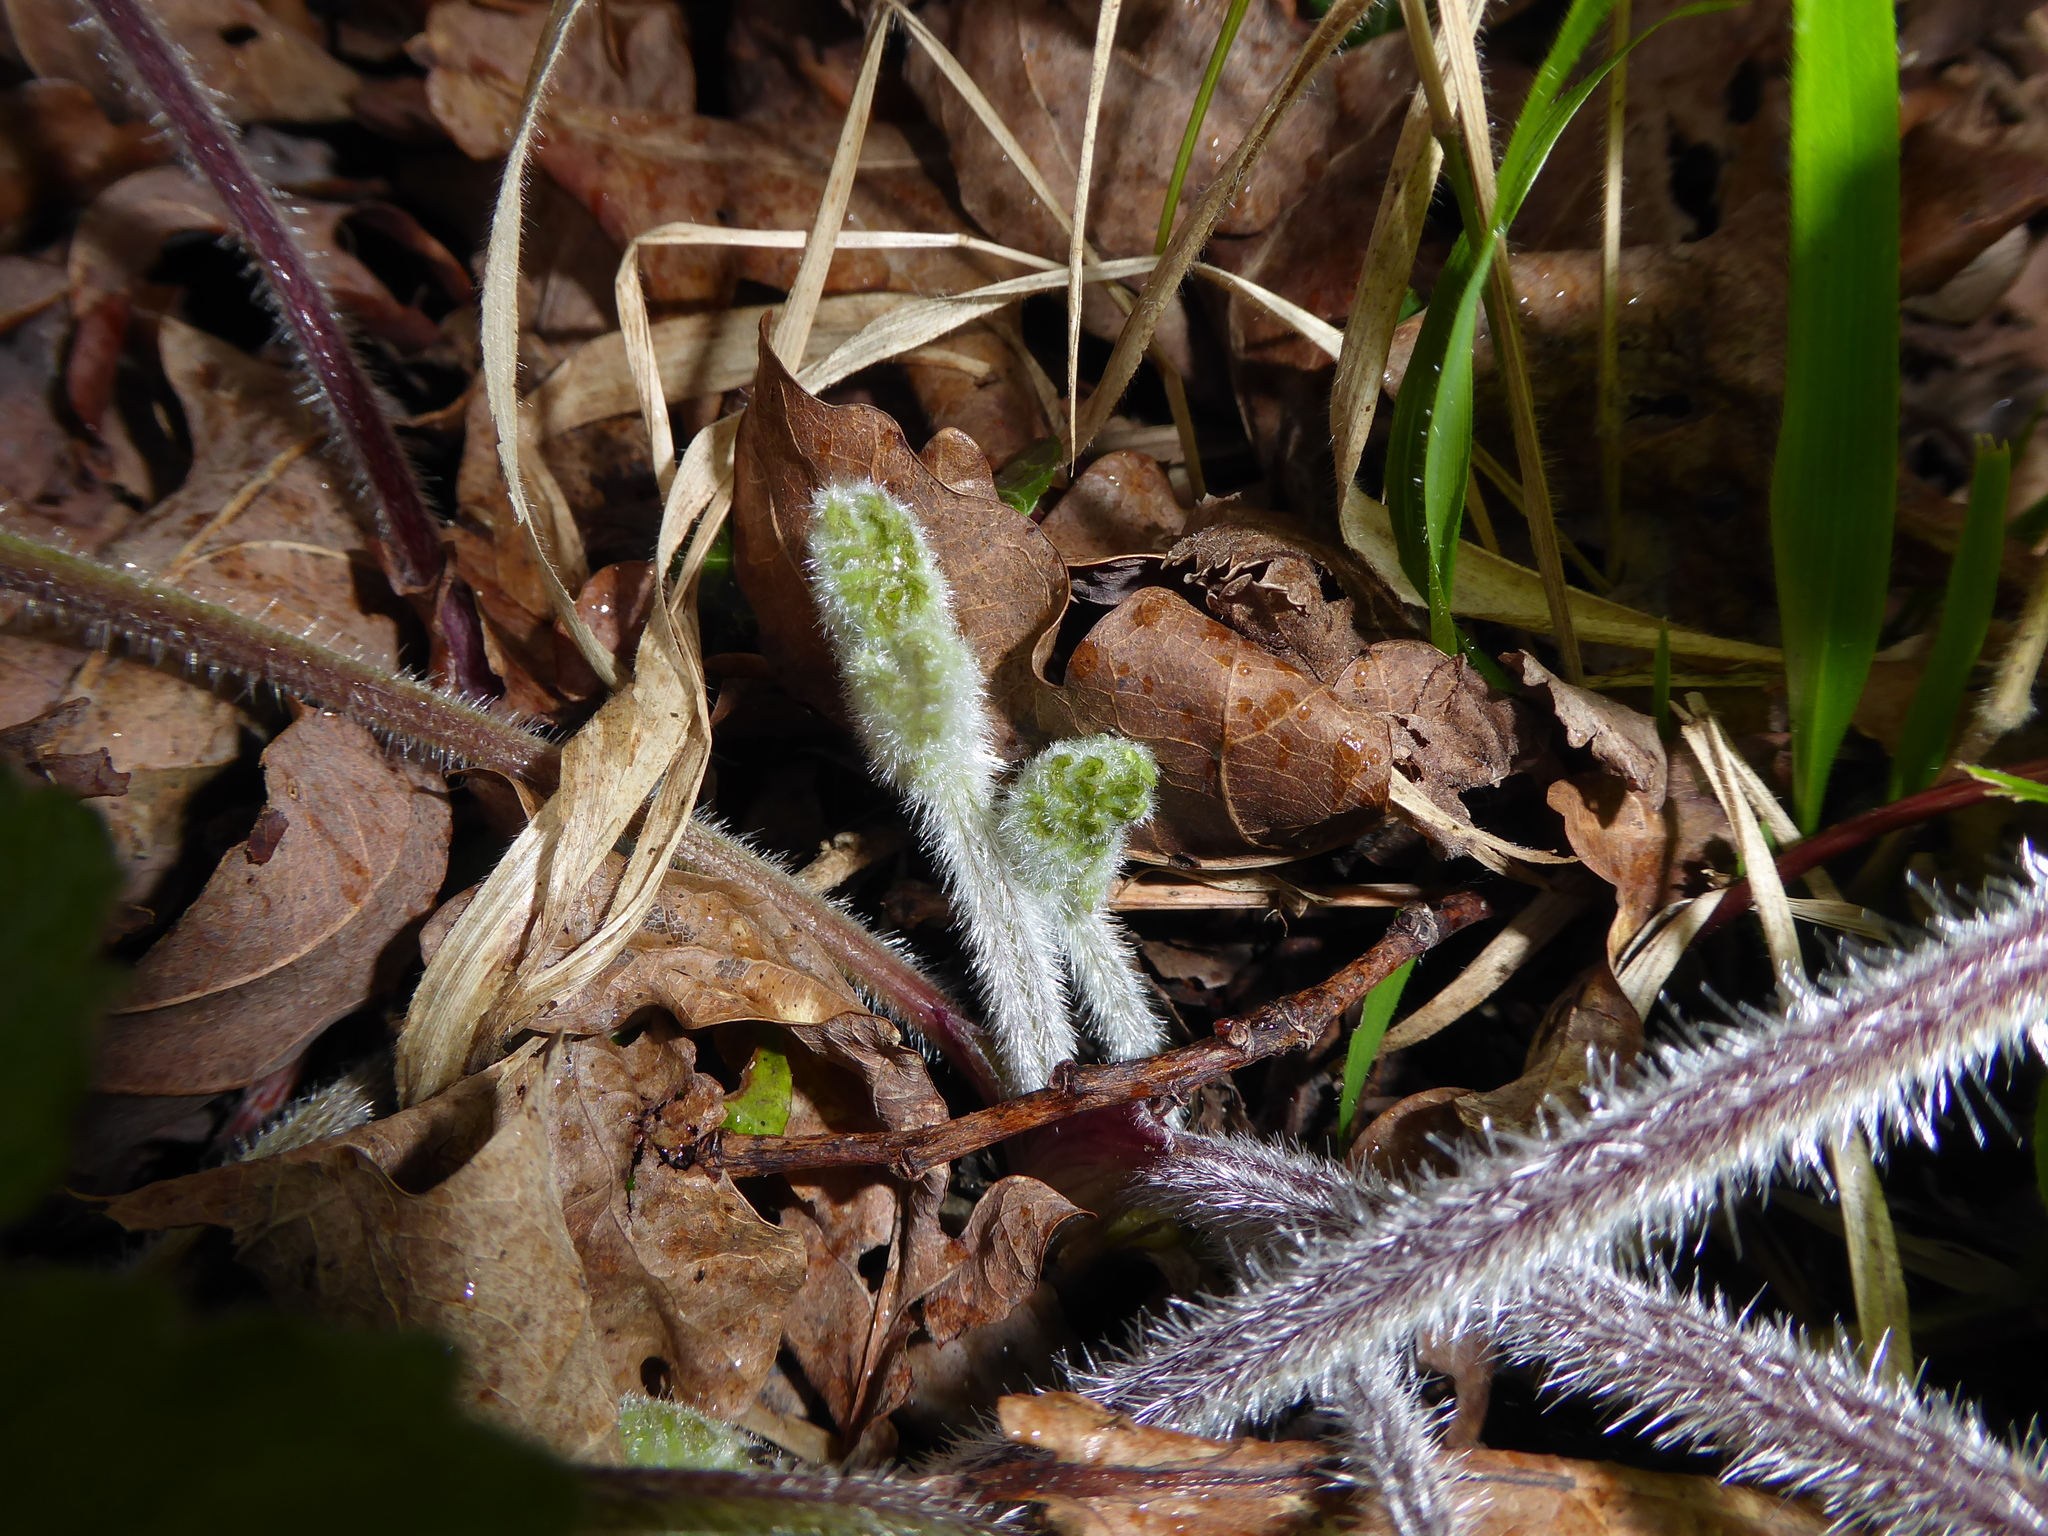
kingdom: Plantae
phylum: Tracheophyta
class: Magnoliopsida
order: Apiales
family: Apiaceae
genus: Heracleum
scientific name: Heracleum sphondylium
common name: Hogweed
